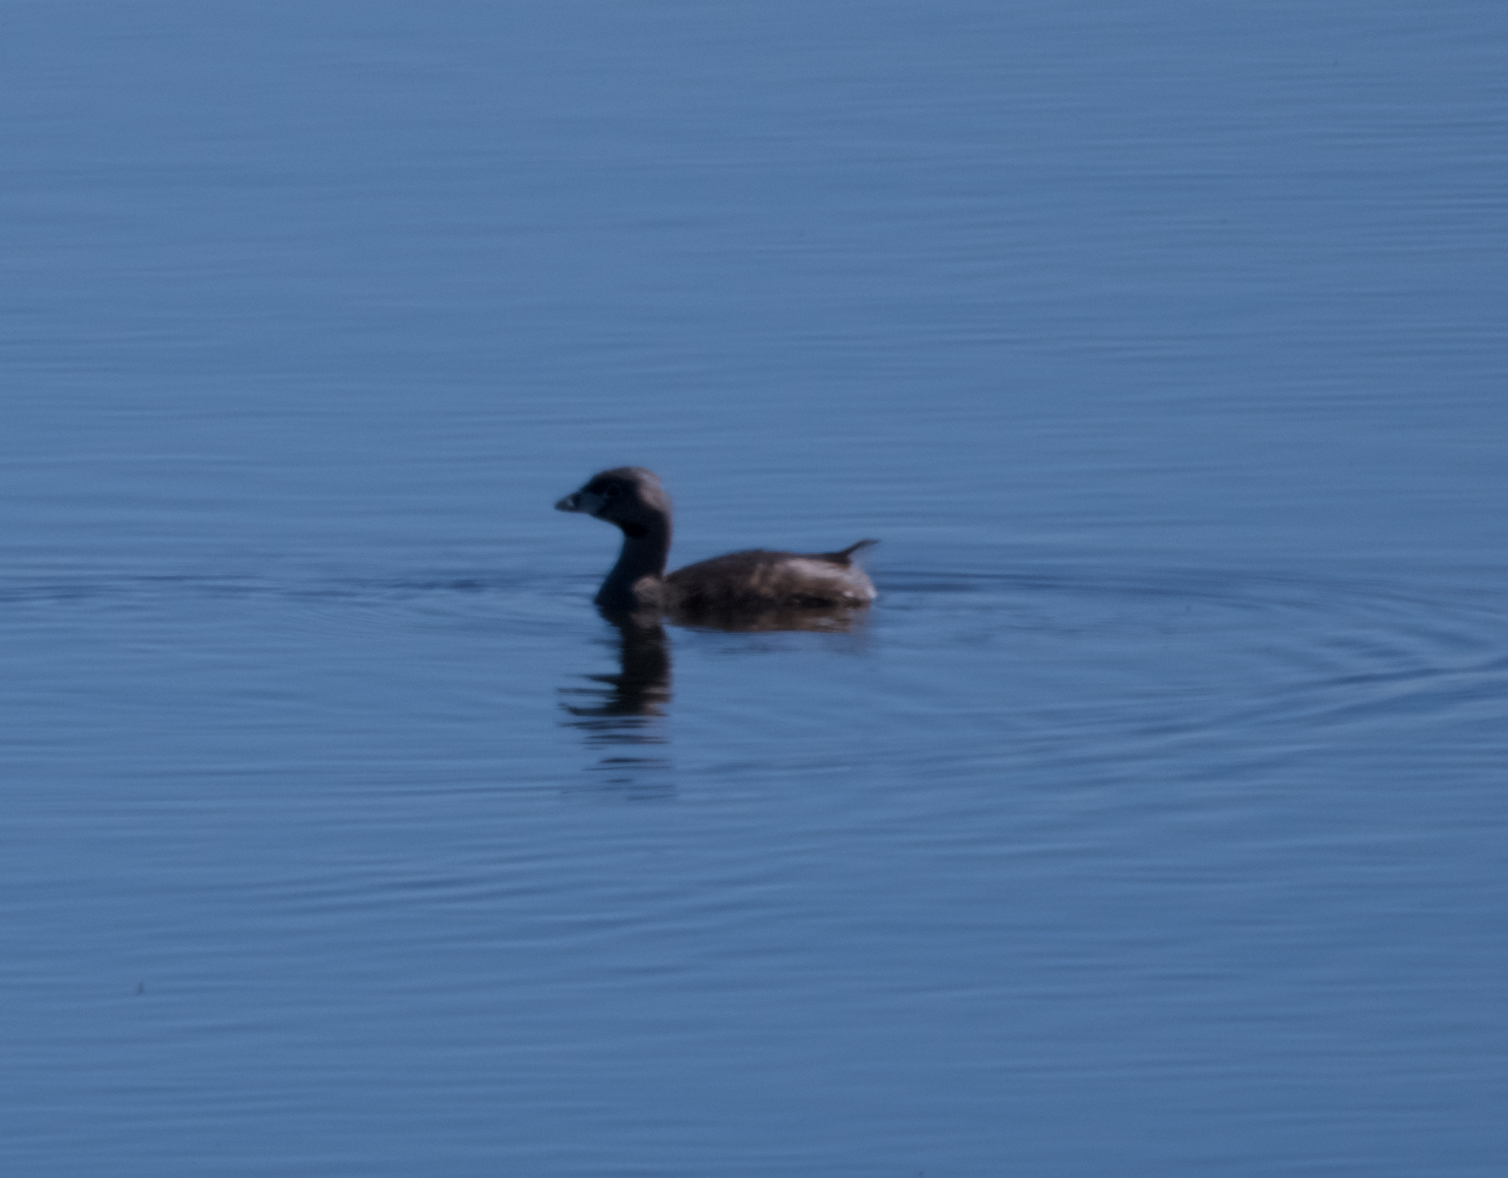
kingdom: Animalia
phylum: Chordata
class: Aves
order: Podicipediformes
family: Podicipedidae
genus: Podilymbus
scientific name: Podilymbus podiceps
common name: Pied-billed grebe
